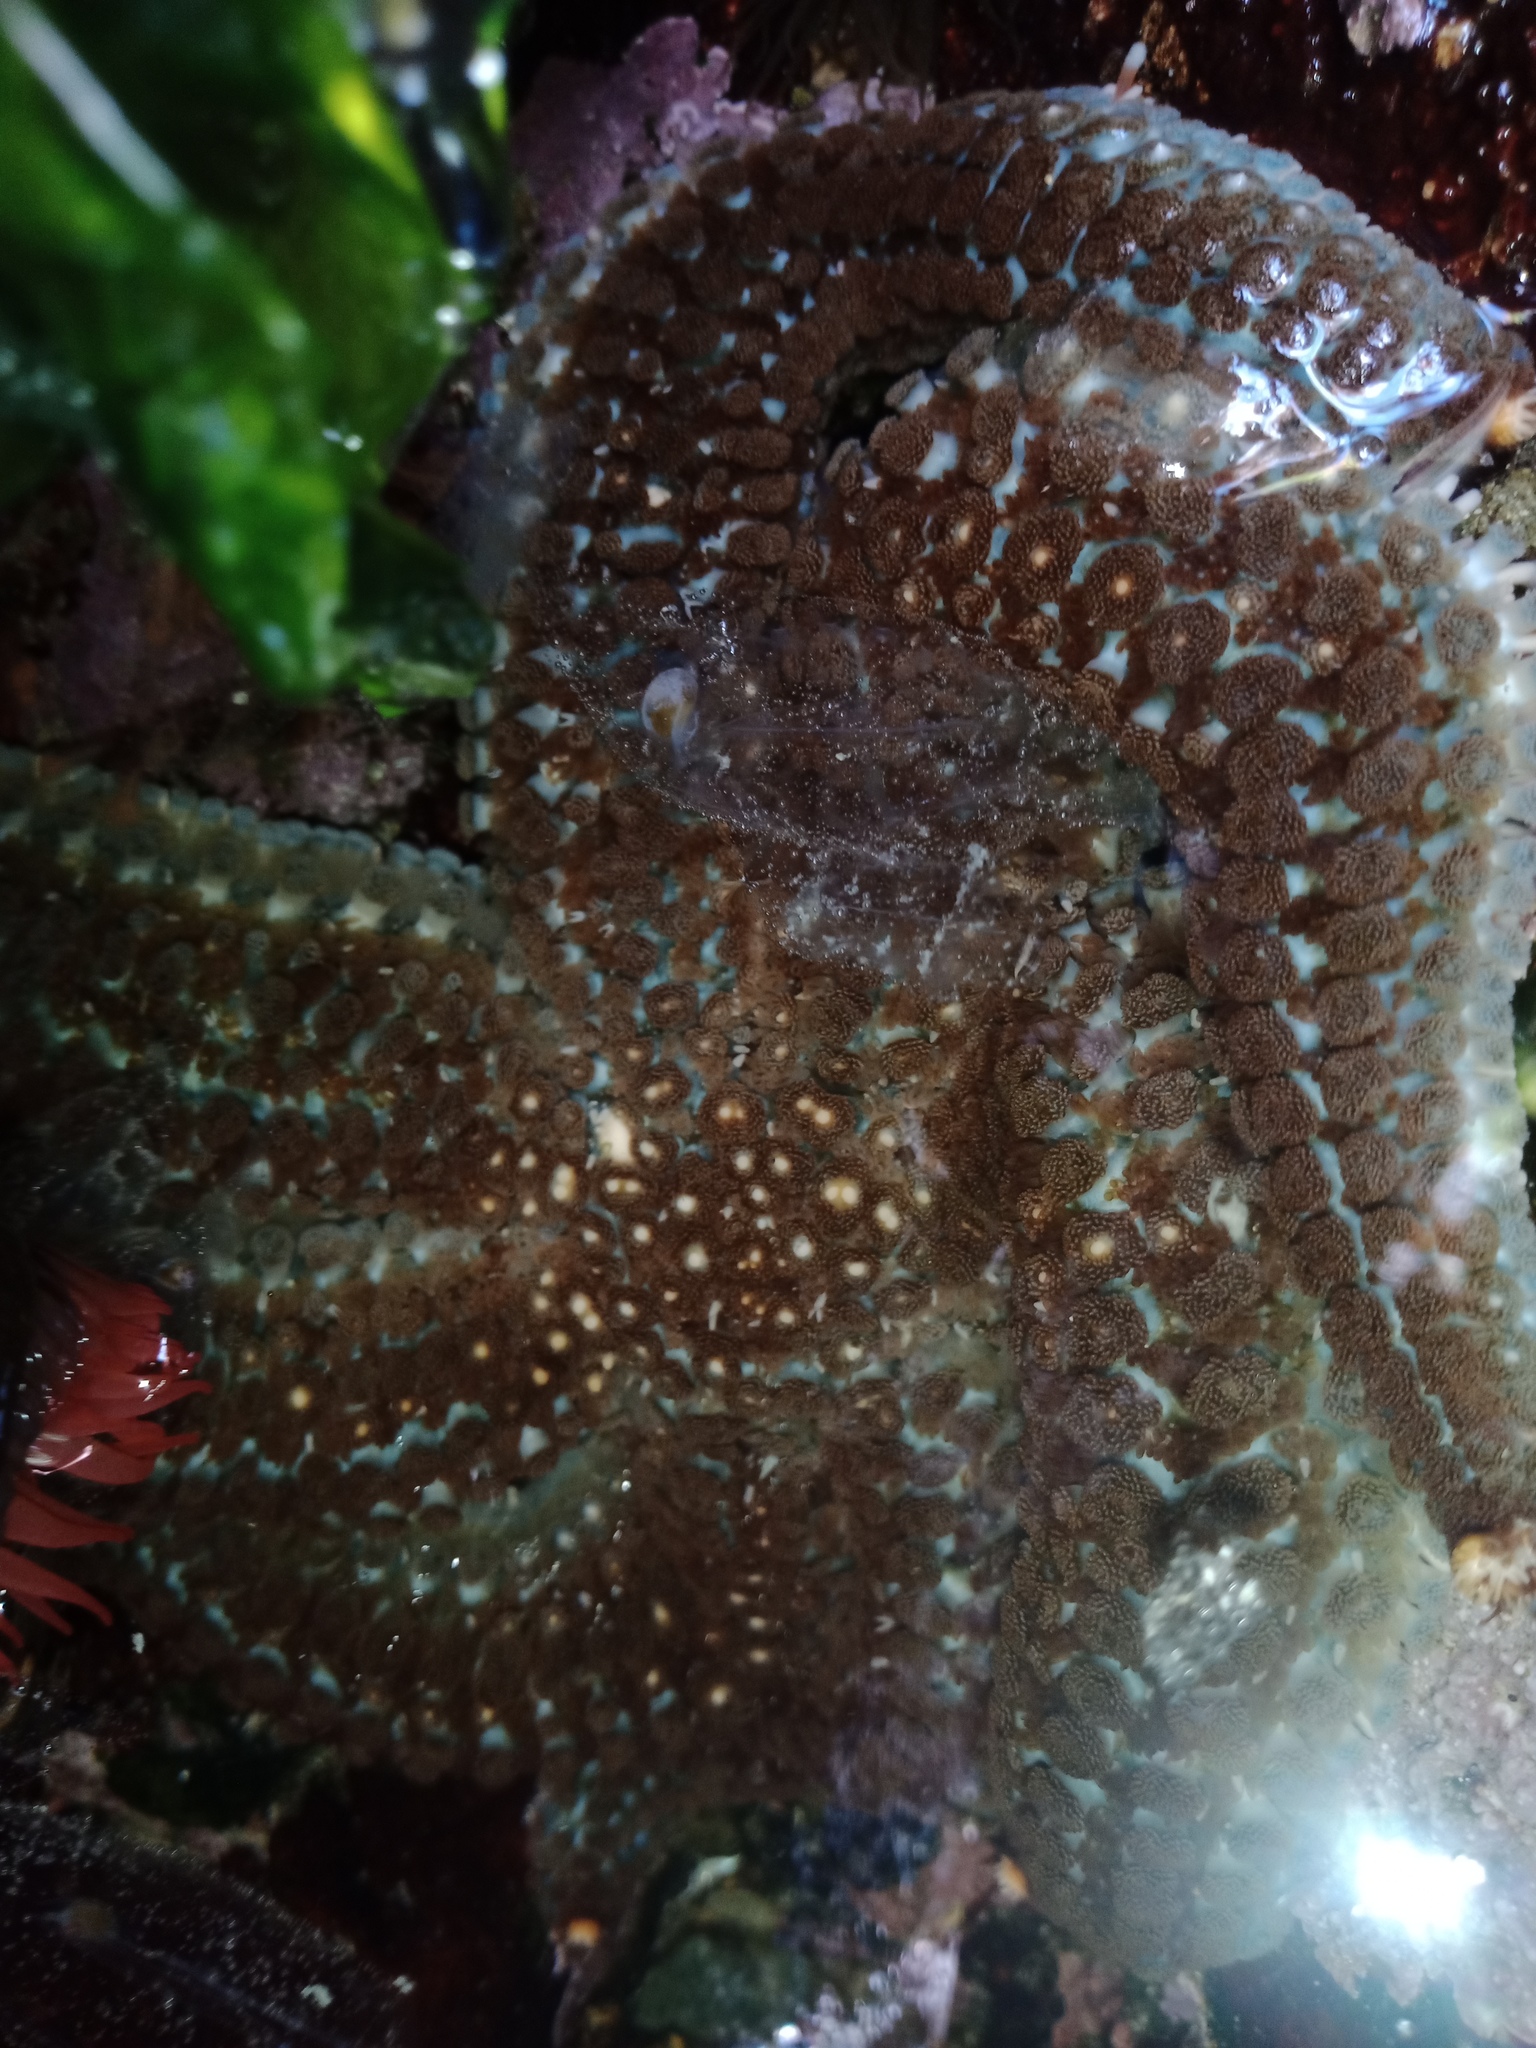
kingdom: Animalia
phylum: Echinodermata
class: Asteroidea
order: Forcipulatida
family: Asteriidae
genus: Astrostole
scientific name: Astrostole scabra
